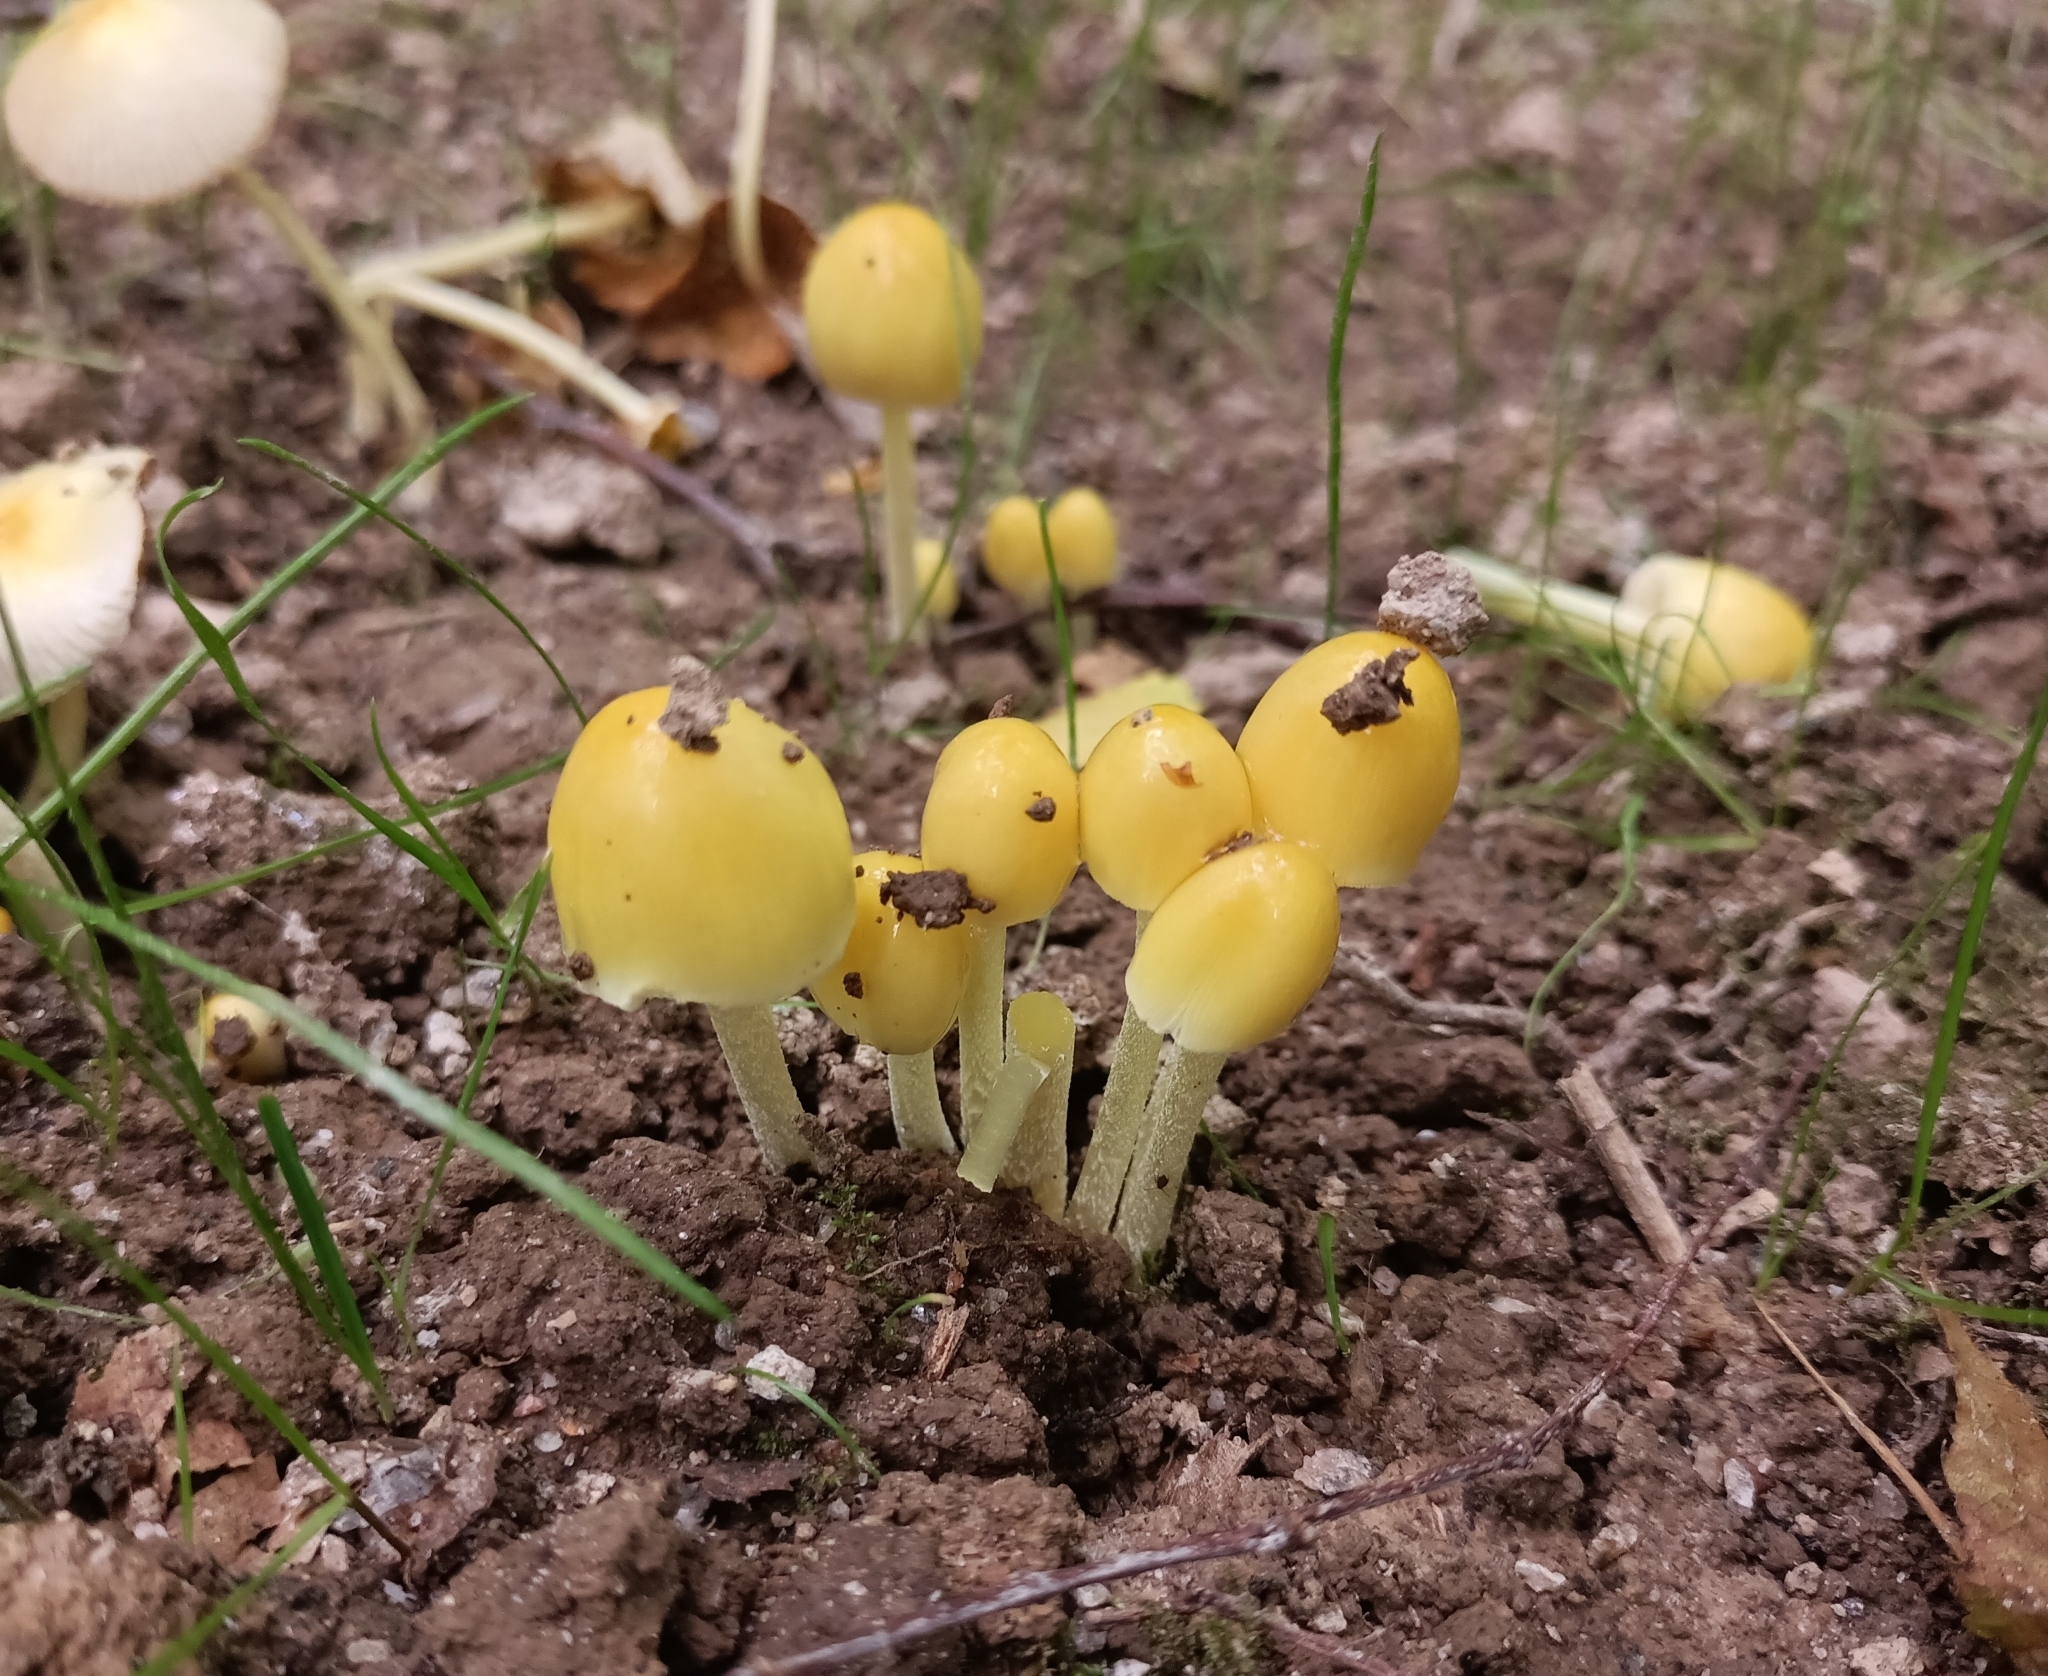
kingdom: Fungi
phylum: Basidiomycota
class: Agaricomycetes
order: Agaricales
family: Bolbitiaceae
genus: Bolbitius
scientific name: Bolbitius titubans
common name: Yellow fieldcap
